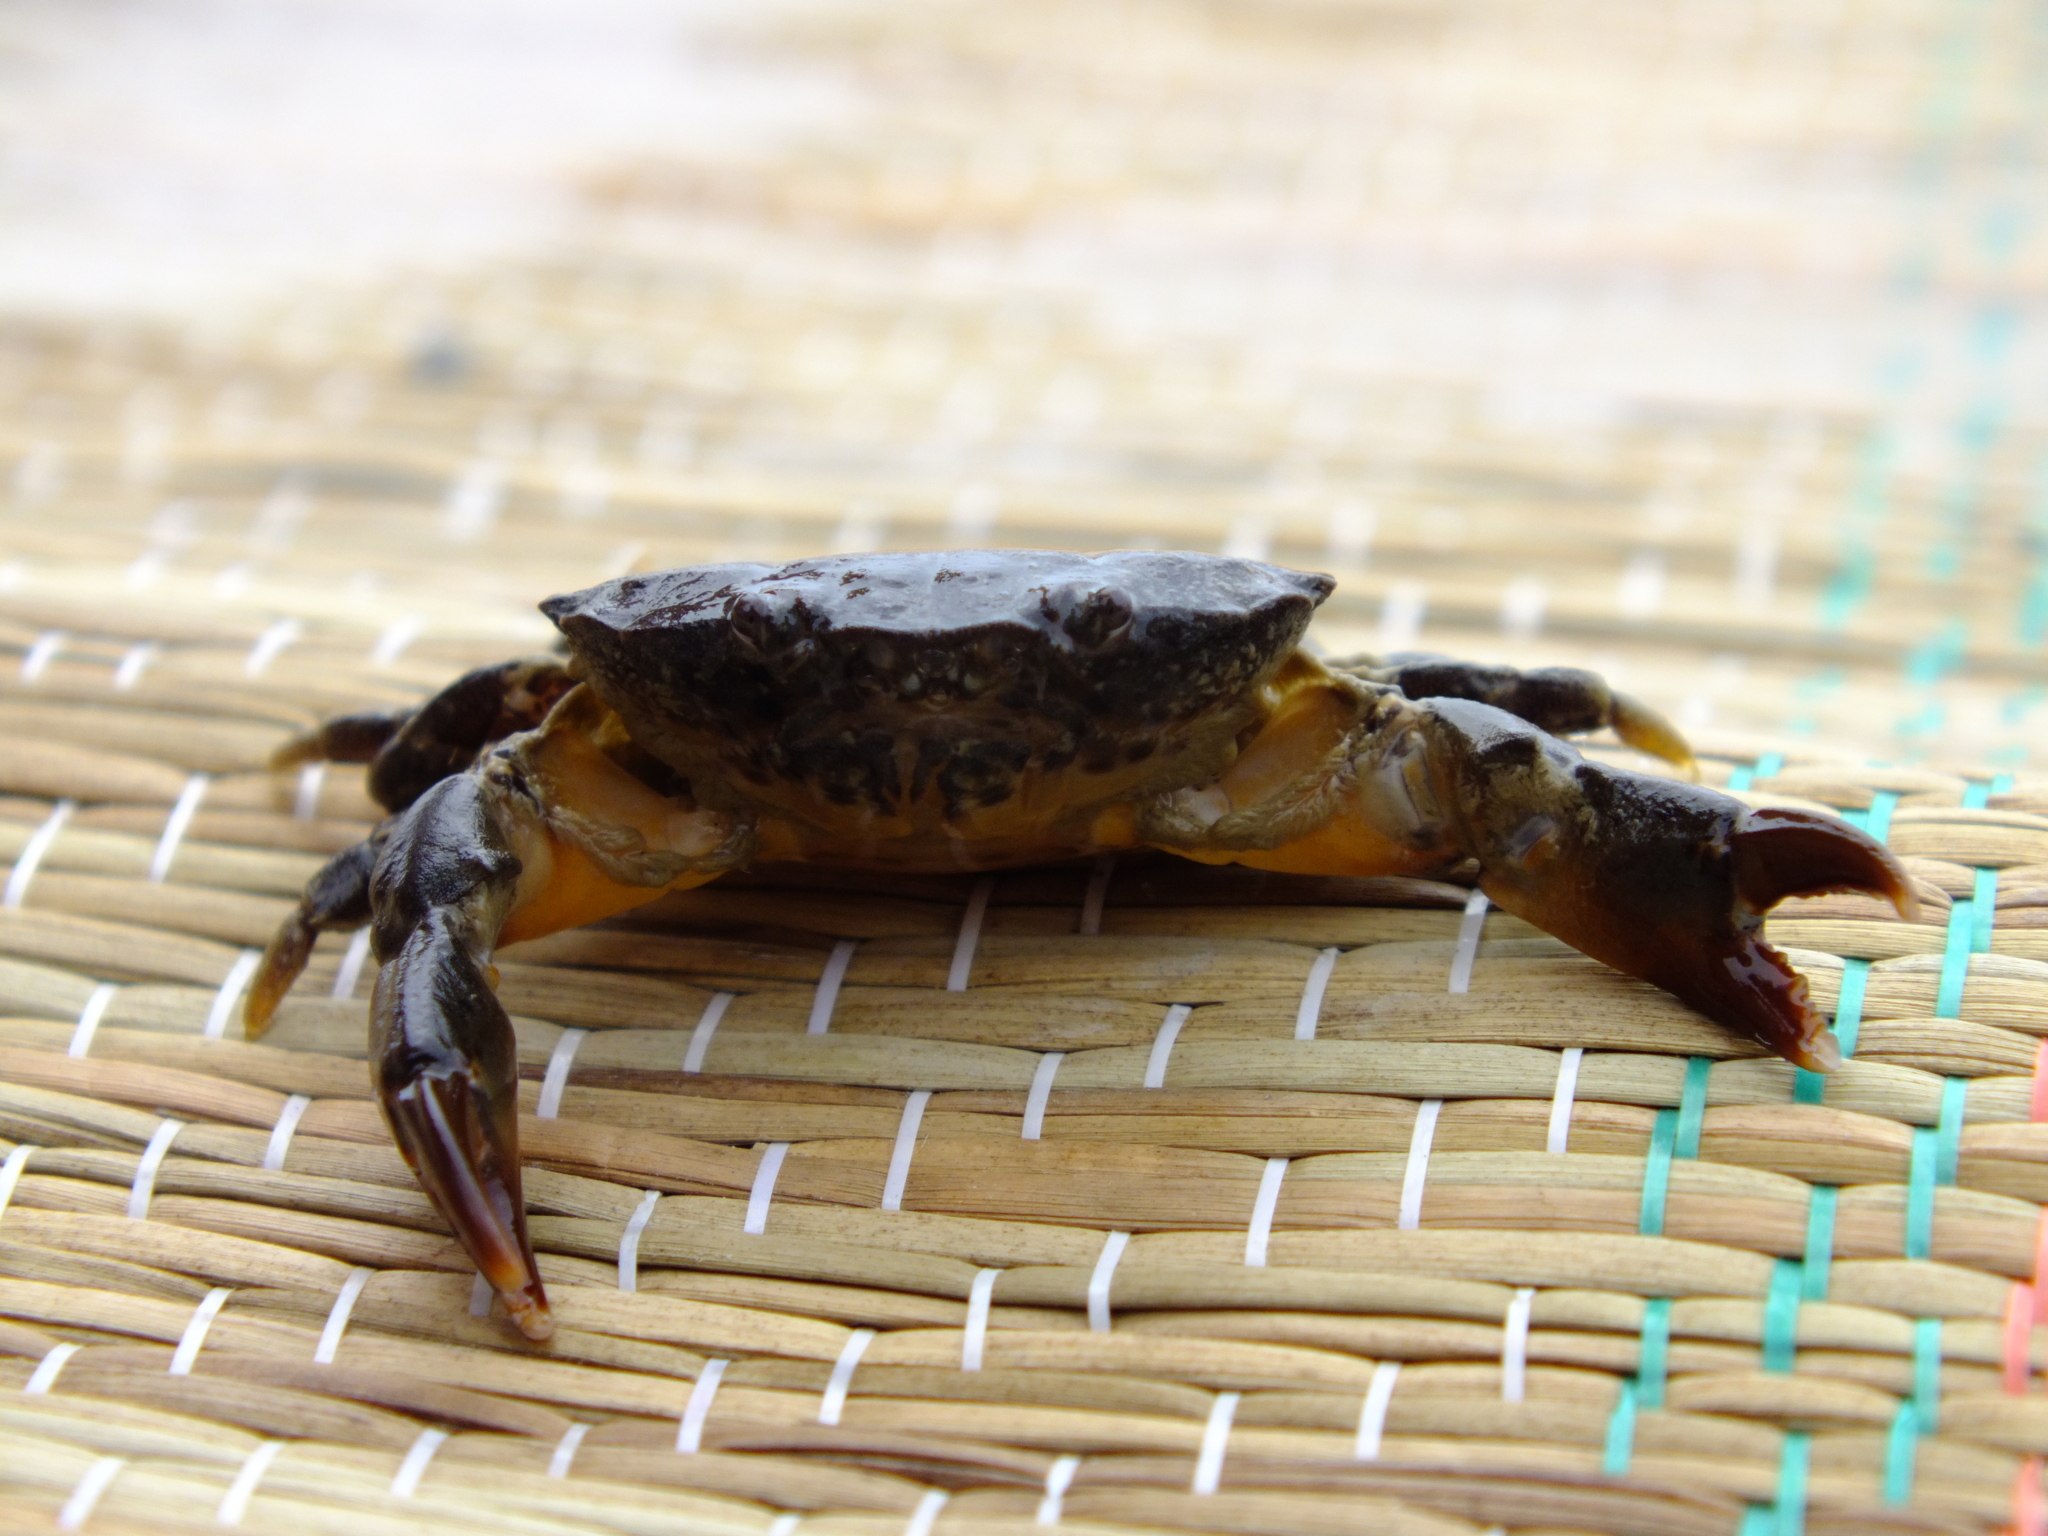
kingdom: Animalia
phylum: Arthropoda
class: Malacostraca
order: Decapoda
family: Xanthidae
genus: Xantho
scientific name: Xantho poressa
